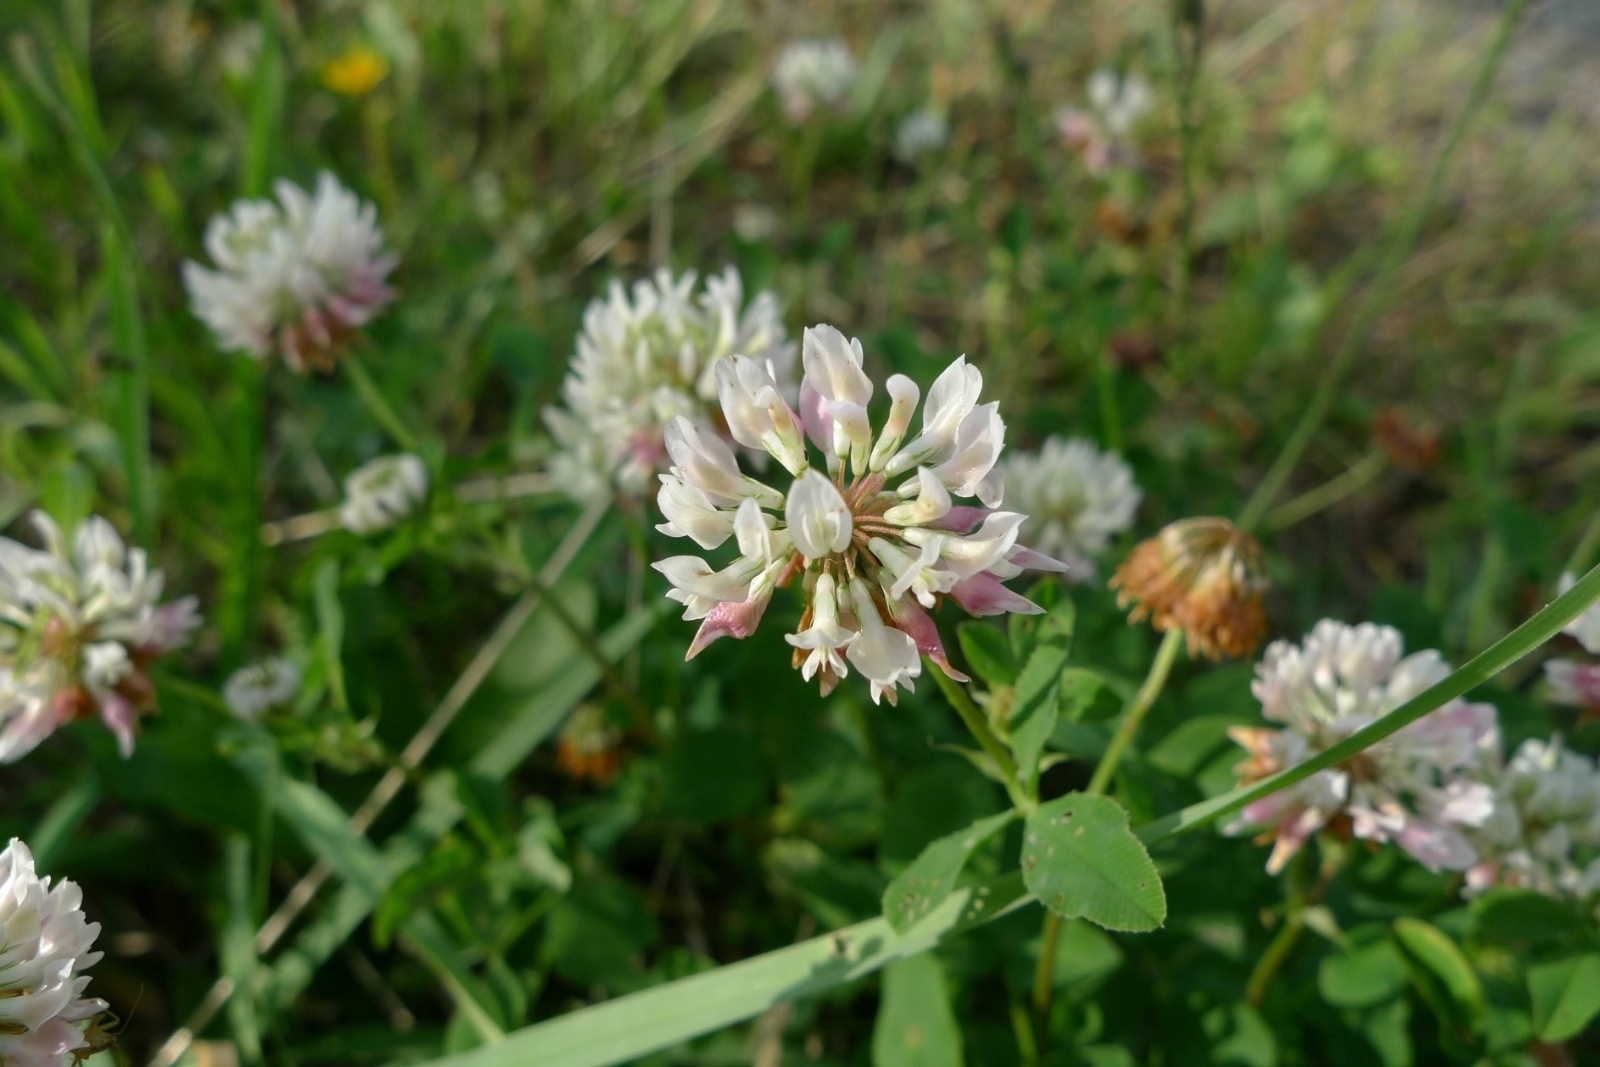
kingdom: Plantae
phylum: Tracheophyta
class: Magnoliopsida
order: Fabales
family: Fabaceae
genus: Trifolium
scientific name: Trifolium hybridum
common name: Alsike clover
